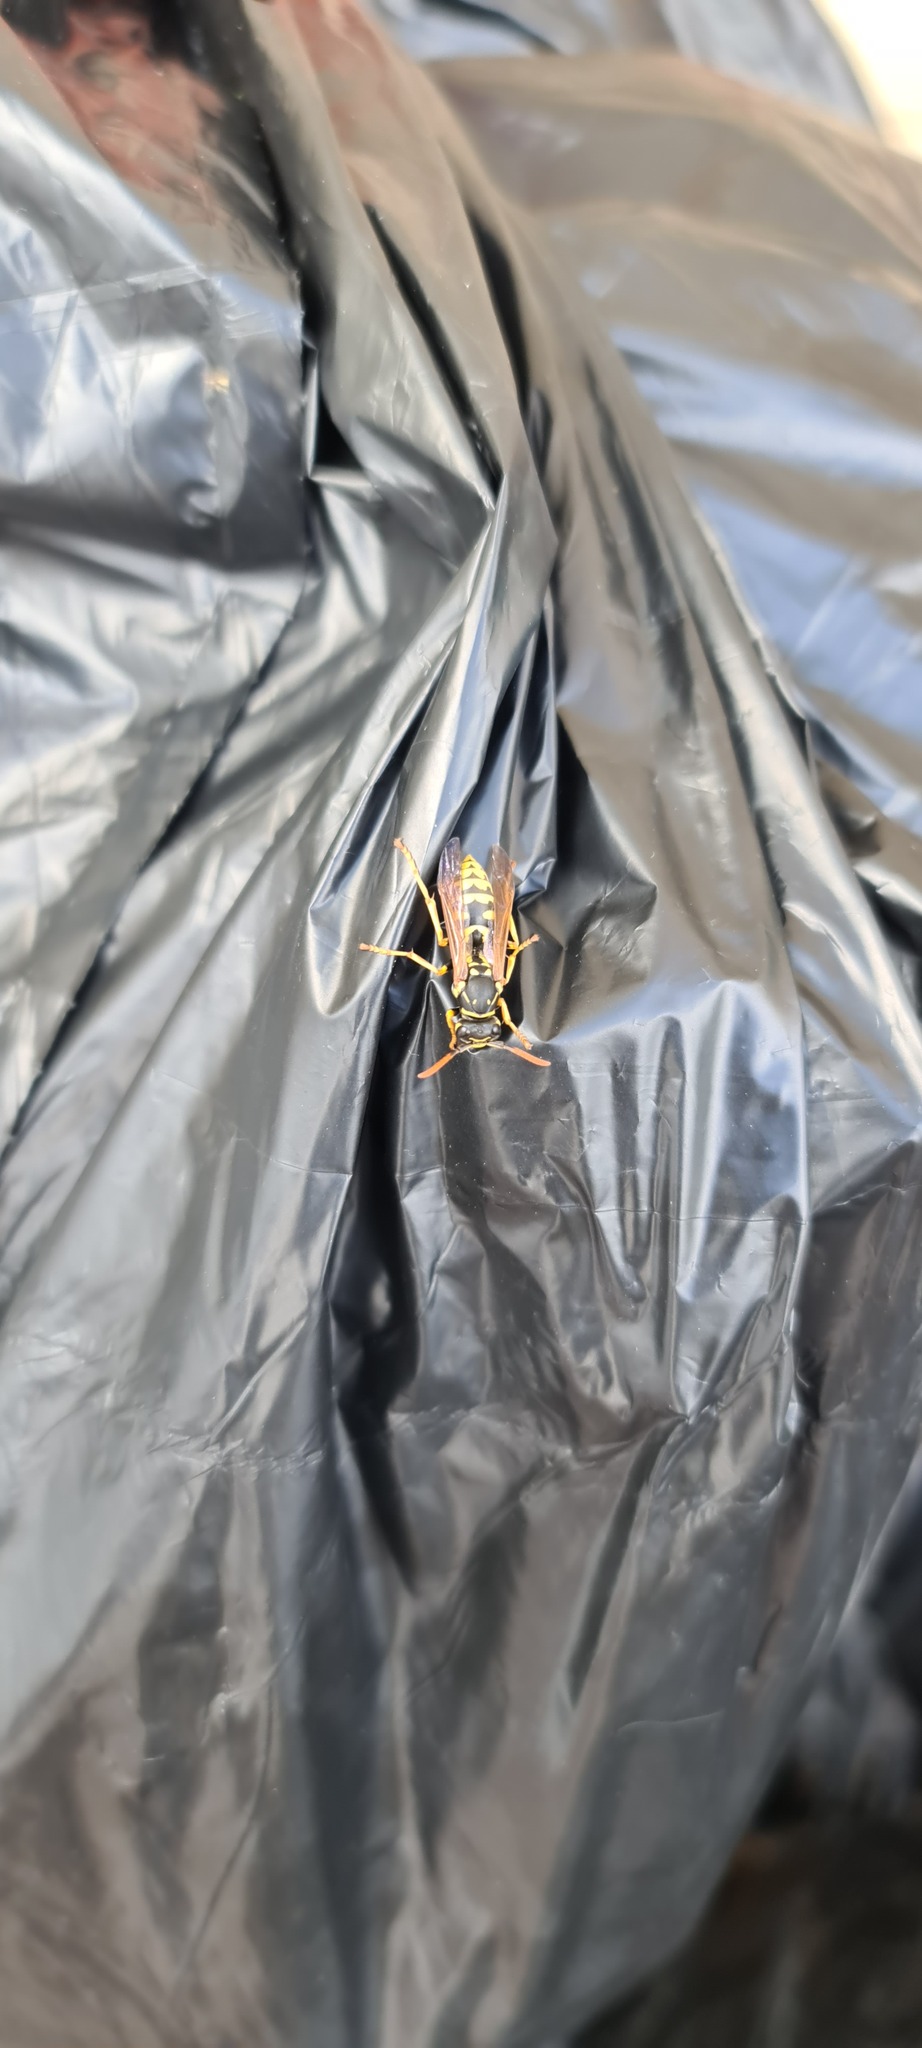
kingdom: Animalia
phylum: Arthropoda
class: Insecta
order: Hymenoptera
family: Eumenidae
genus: Polistes
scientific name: Polistes dominula
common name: Paper wasp
